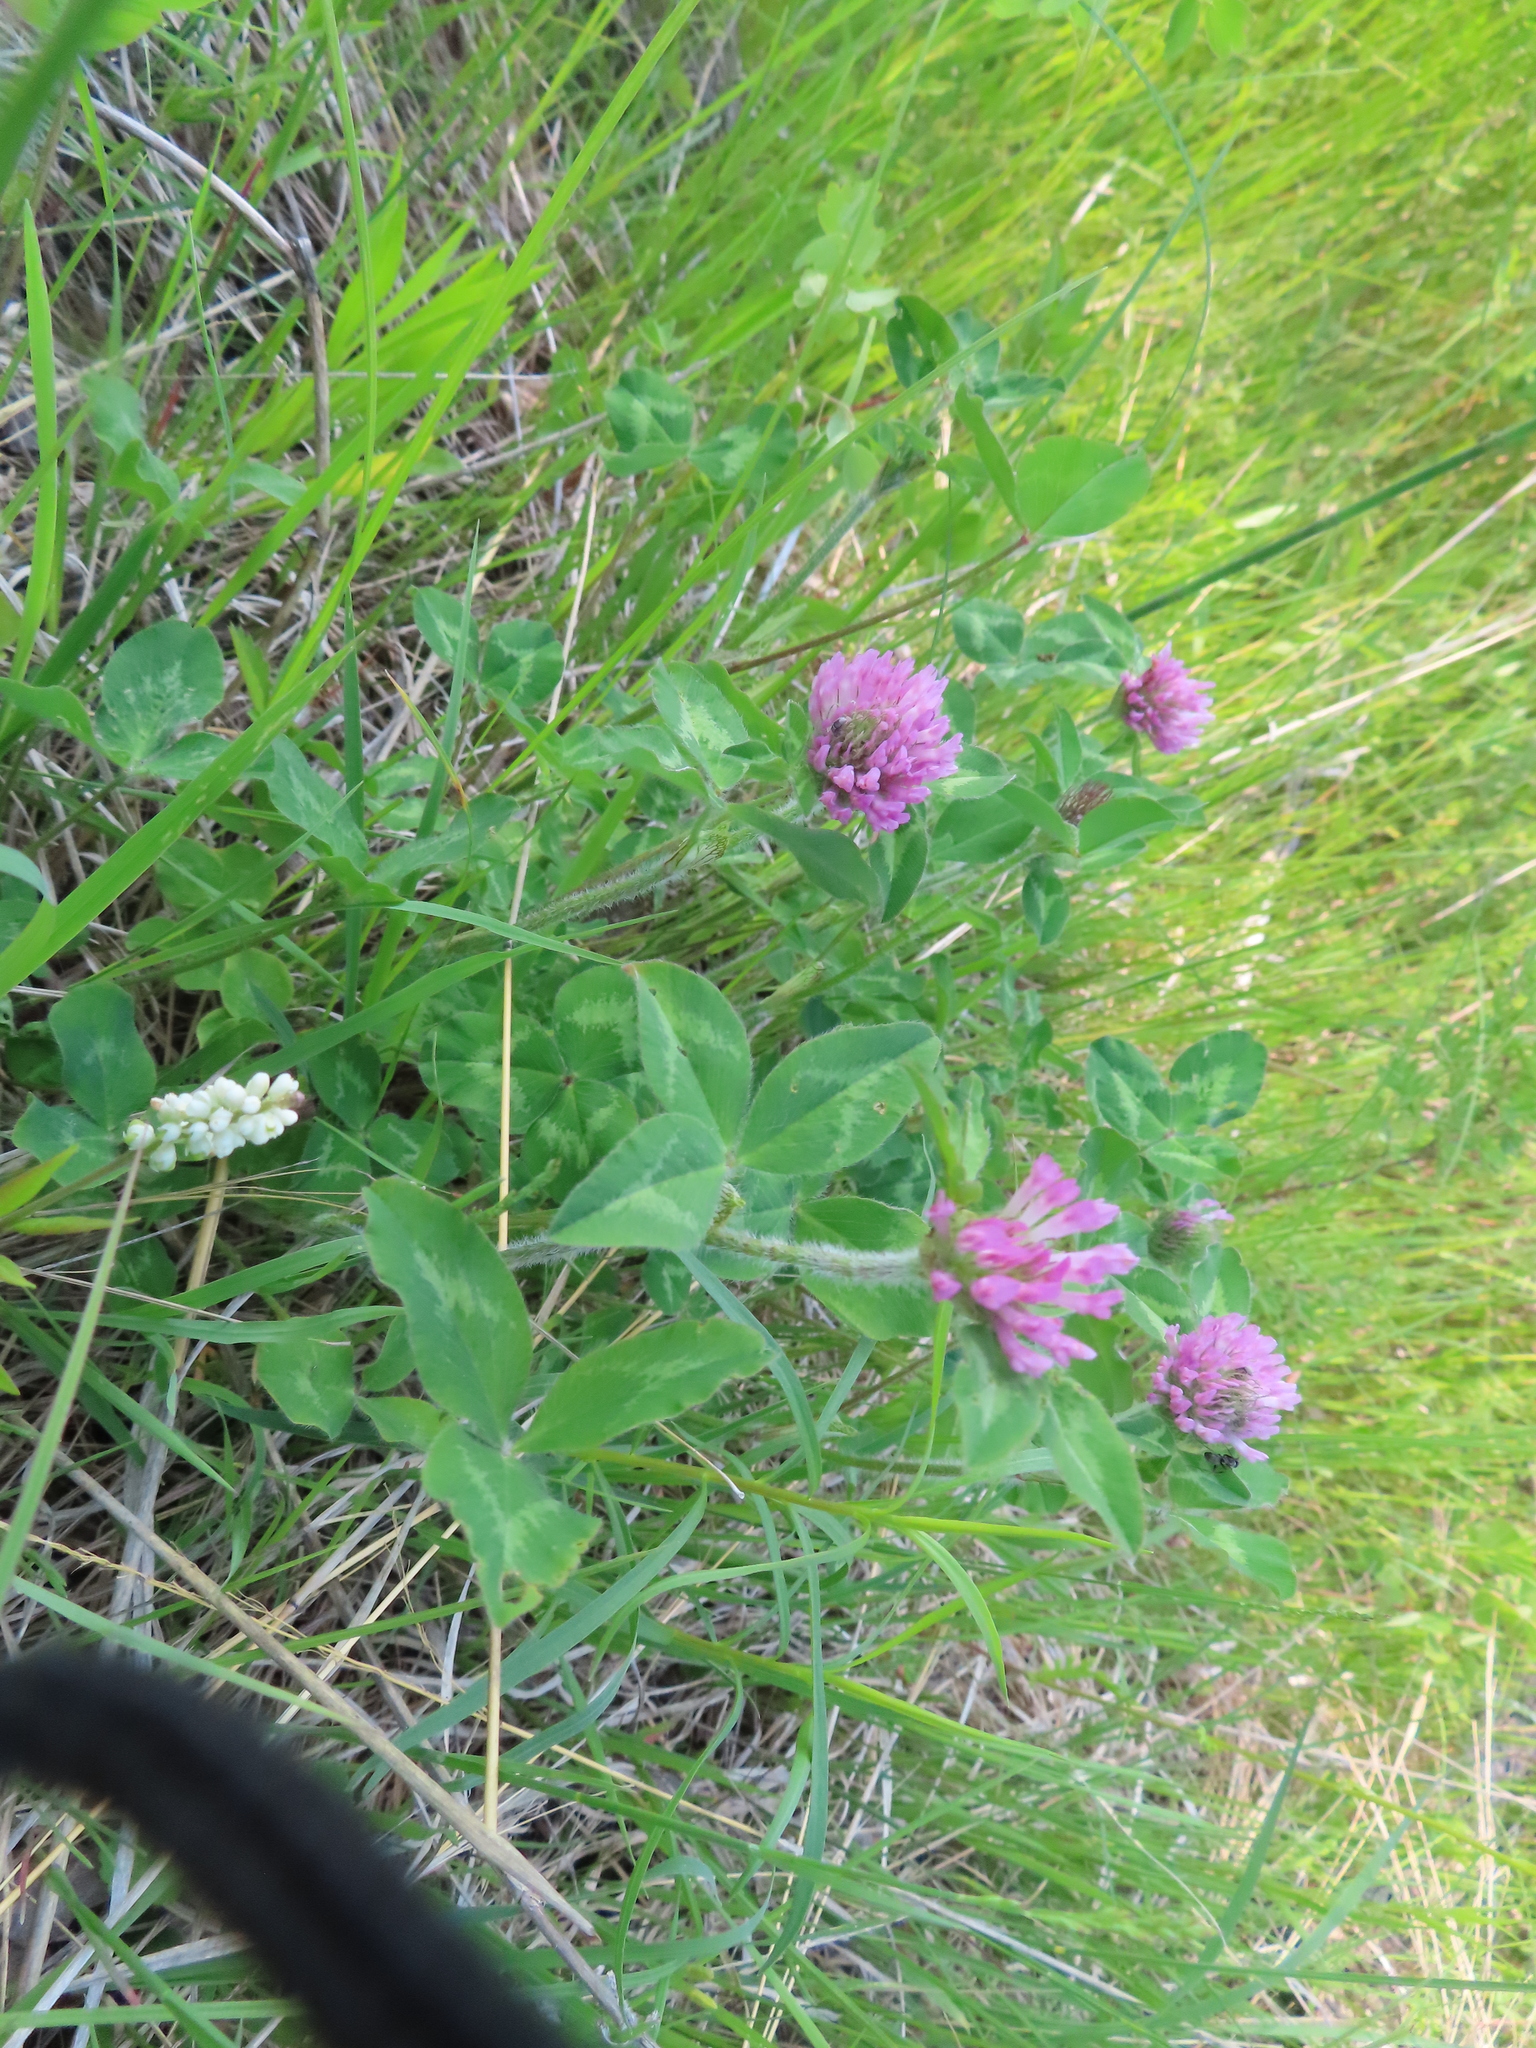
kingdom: Plantae
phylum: Tracheophyta
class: Magnoliopsida
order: Fabales
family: Fabaceae
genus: Trifolium
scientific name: Trifolium pratense
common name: Red clover
